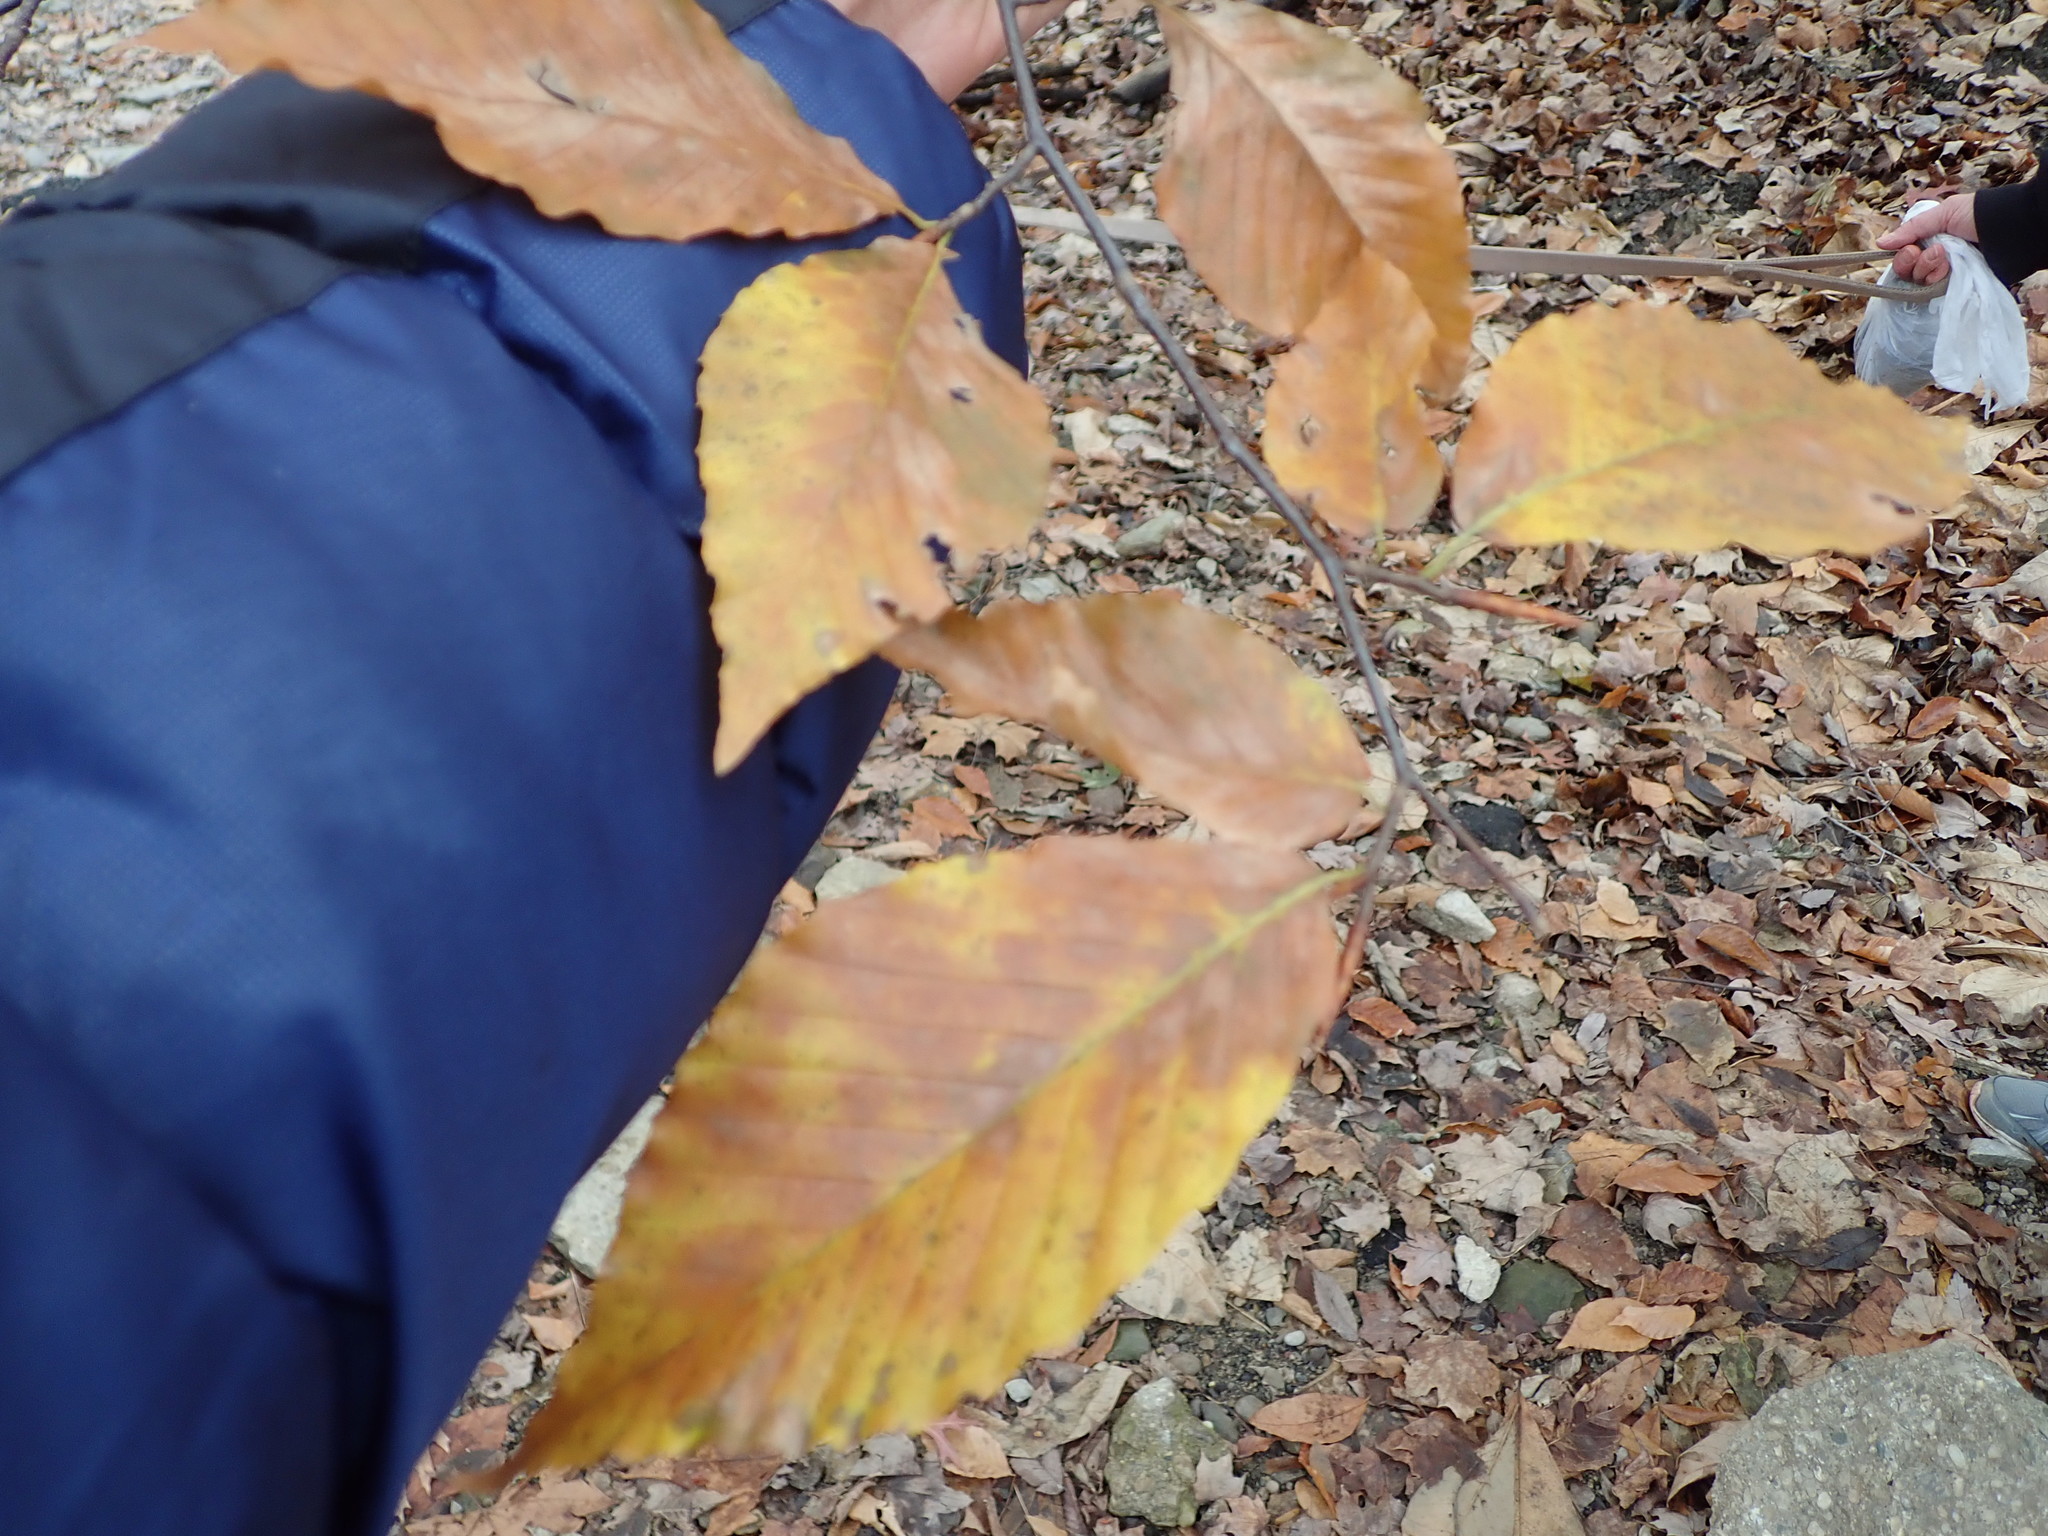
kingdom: Plantae
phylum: Tracheophyta
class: Magnoliopsida
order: Fagales
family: Fagaceae
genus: Fagus
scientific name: Fagus grandifolia
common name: American beech
